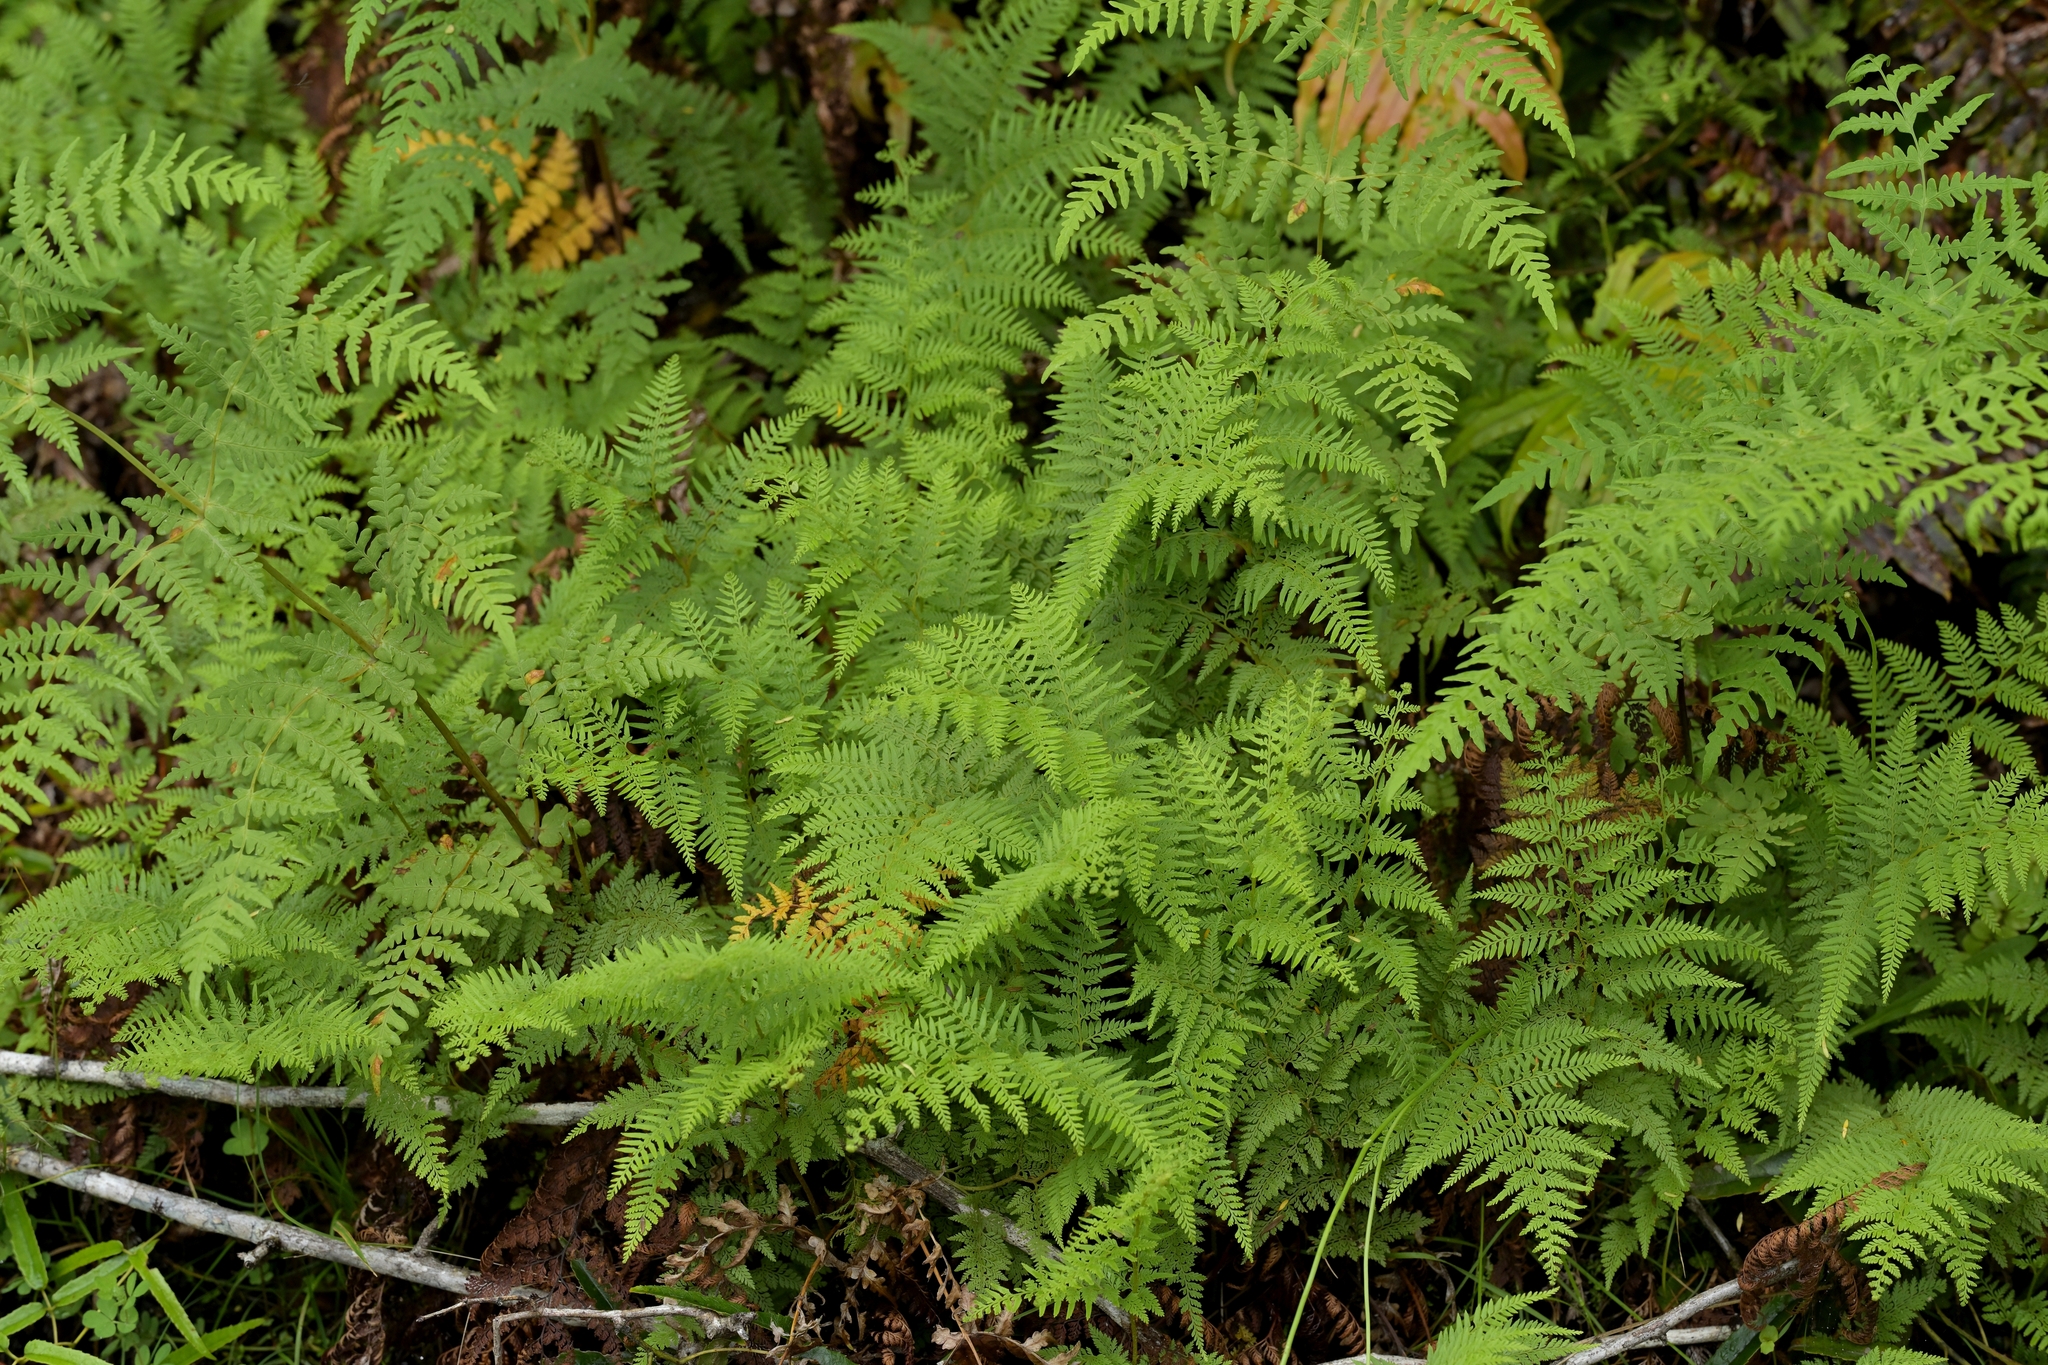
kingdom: Plantae
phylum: Tracheophyta
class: Polypodiopsida
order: Polypodiales
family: Dennstaedtiaceae
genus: Paesia
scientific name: Paesia scaberula
